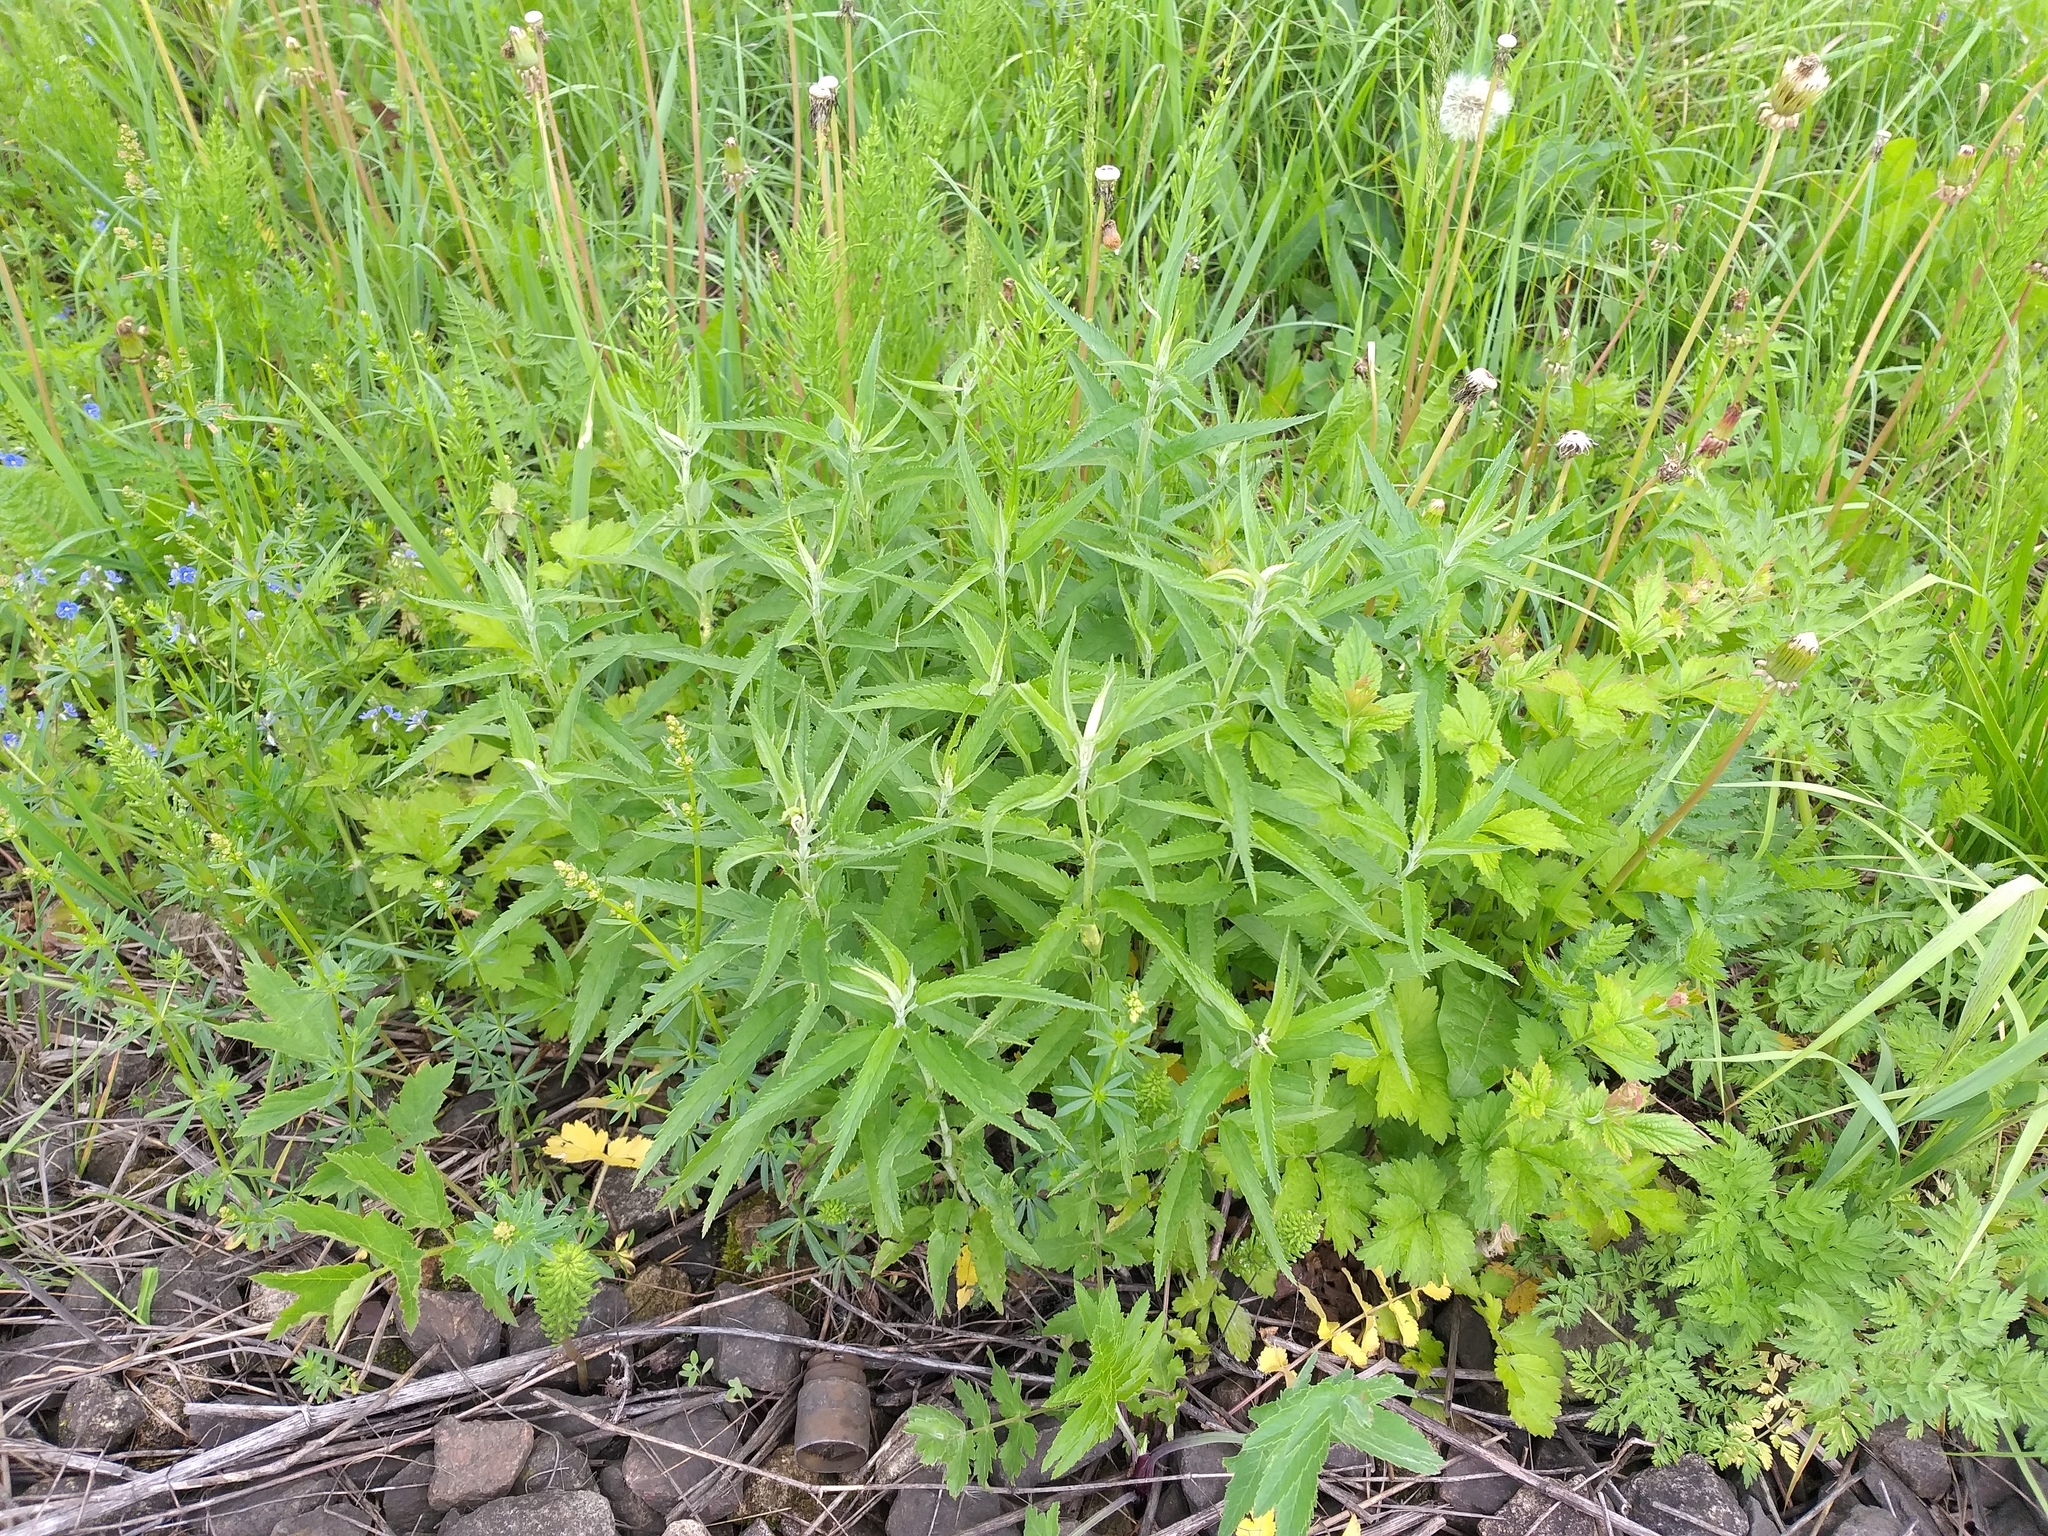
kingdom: Plantae
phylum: Tracheophyta
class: Magnoliopsida
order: Lamiales
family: Plantaginaceae
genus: Veronica
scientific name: Veronica longifolia
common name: Garden speedwell
